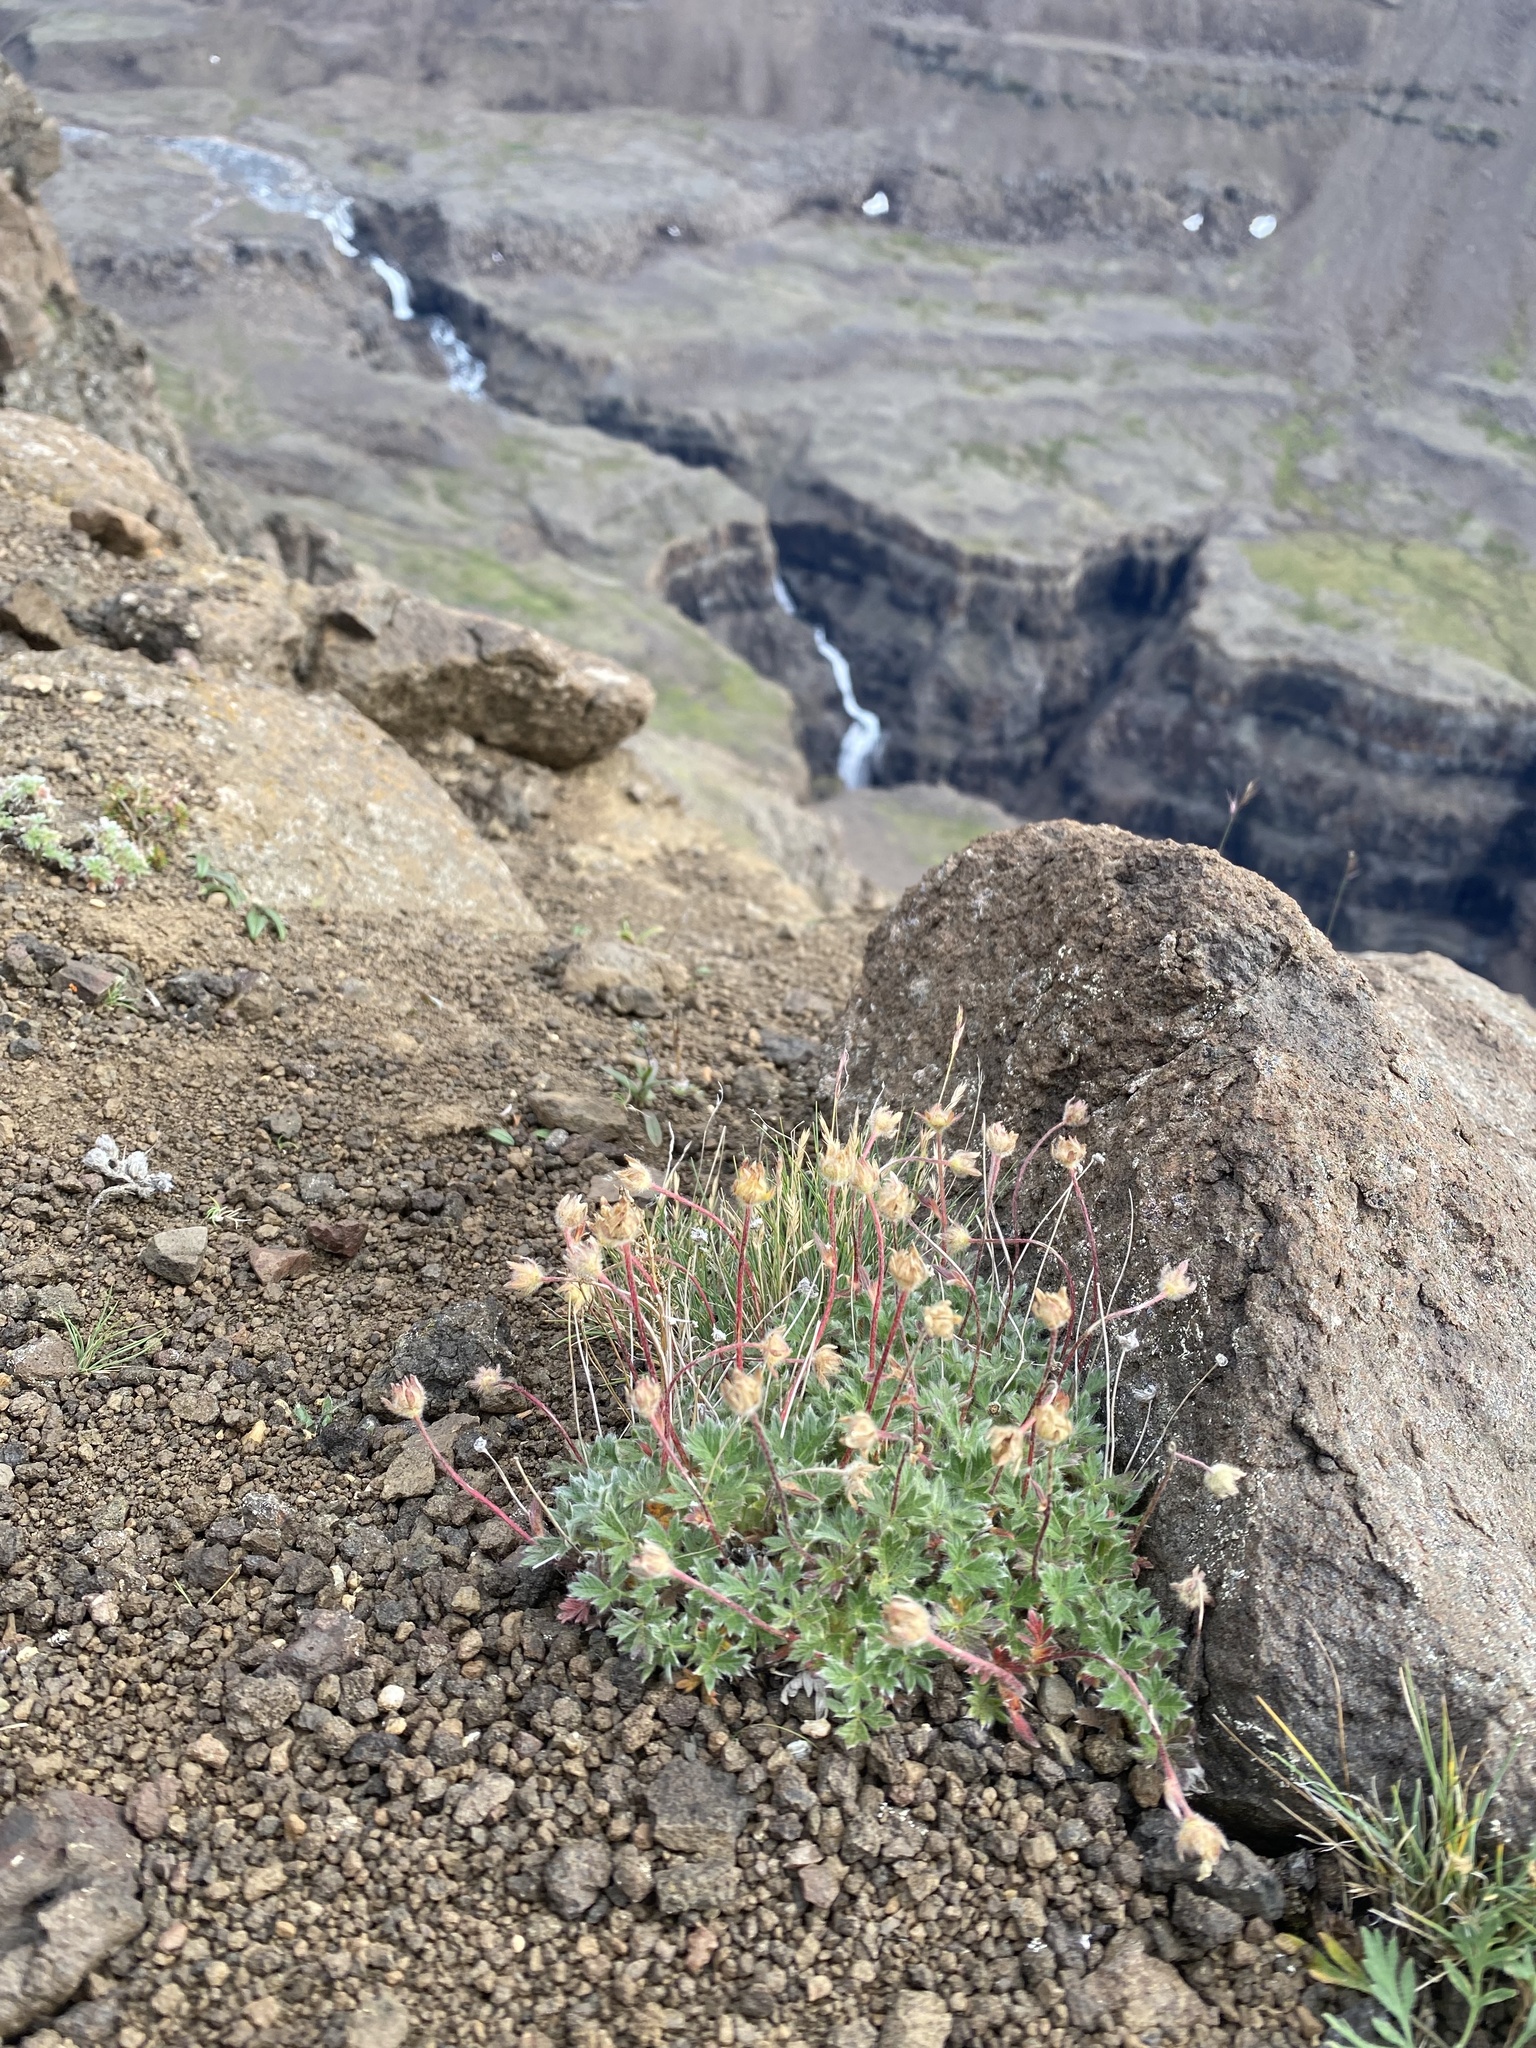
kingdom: Plantae
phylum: Tracheophyta
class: Magnoliopsida
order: Rosales
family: Rosaceae
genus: Potentilla
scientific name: Potentilla uniflora
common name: One-flowered cinquefoil
